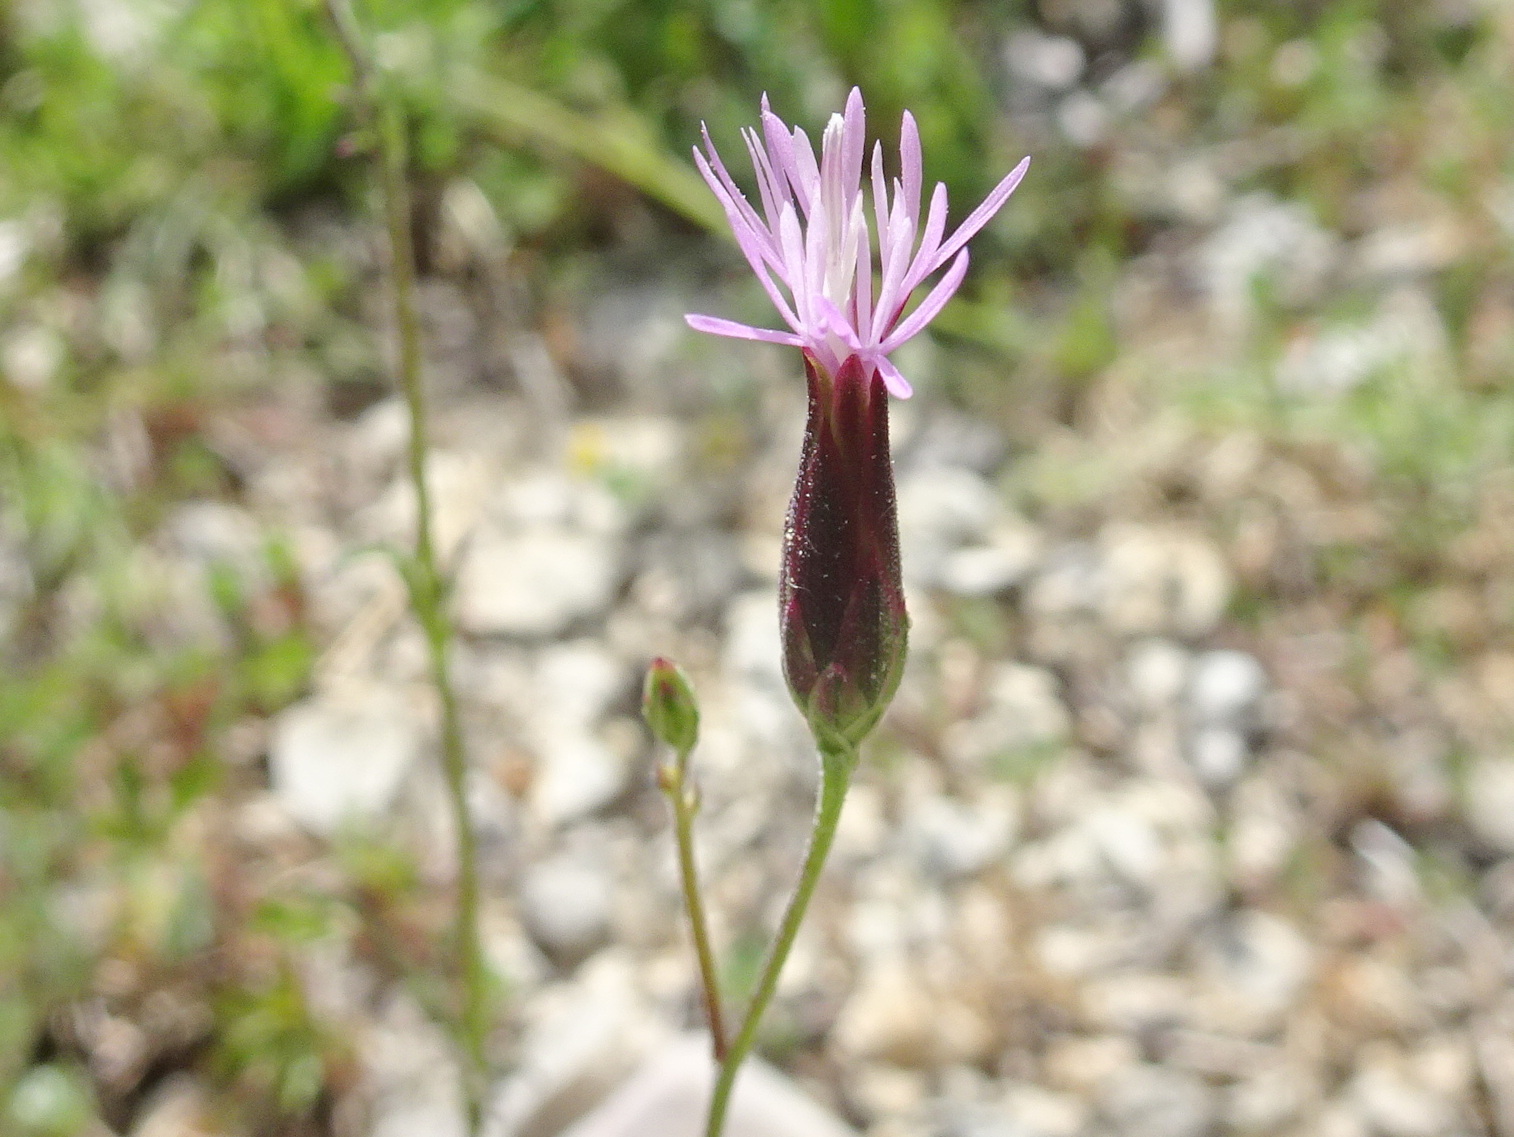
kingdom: Plantae
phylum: Tracheophyta
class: Magnoliopsida
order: Asterales
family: Asteraceae
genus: Crupina
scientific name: Crupina vulgaris
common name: Common crupina
